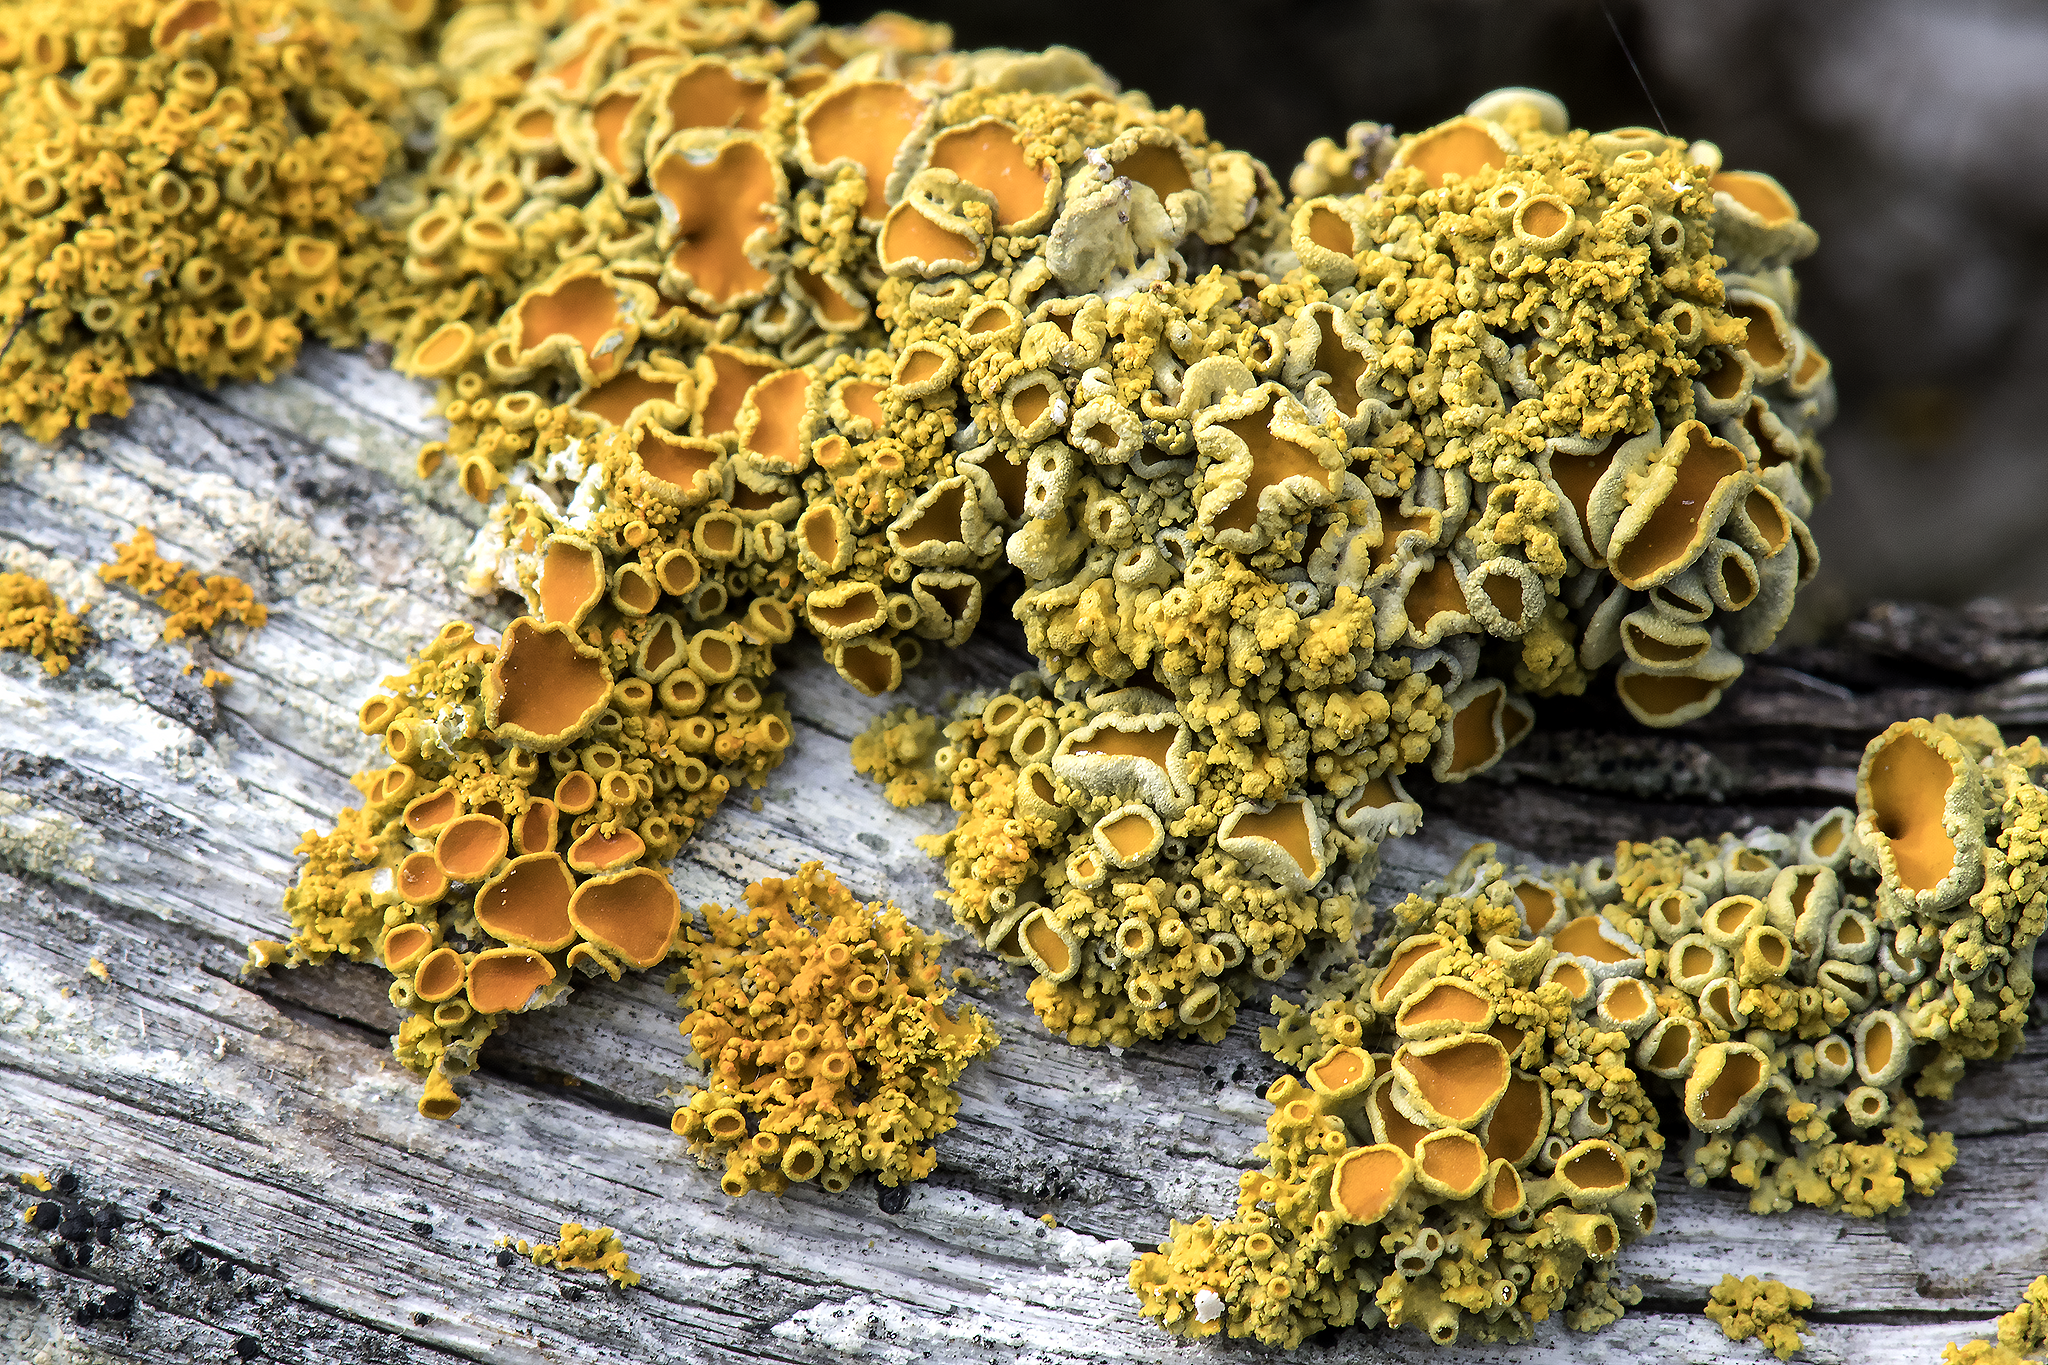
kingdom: Fungi
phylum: Ascomycota
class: Lecanoromycetes
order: Teloschistales
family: Teloschistaceae
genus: Polycauliona
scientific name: Polycauliona polycarpa
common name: Pin-cushion sunburst lichen
